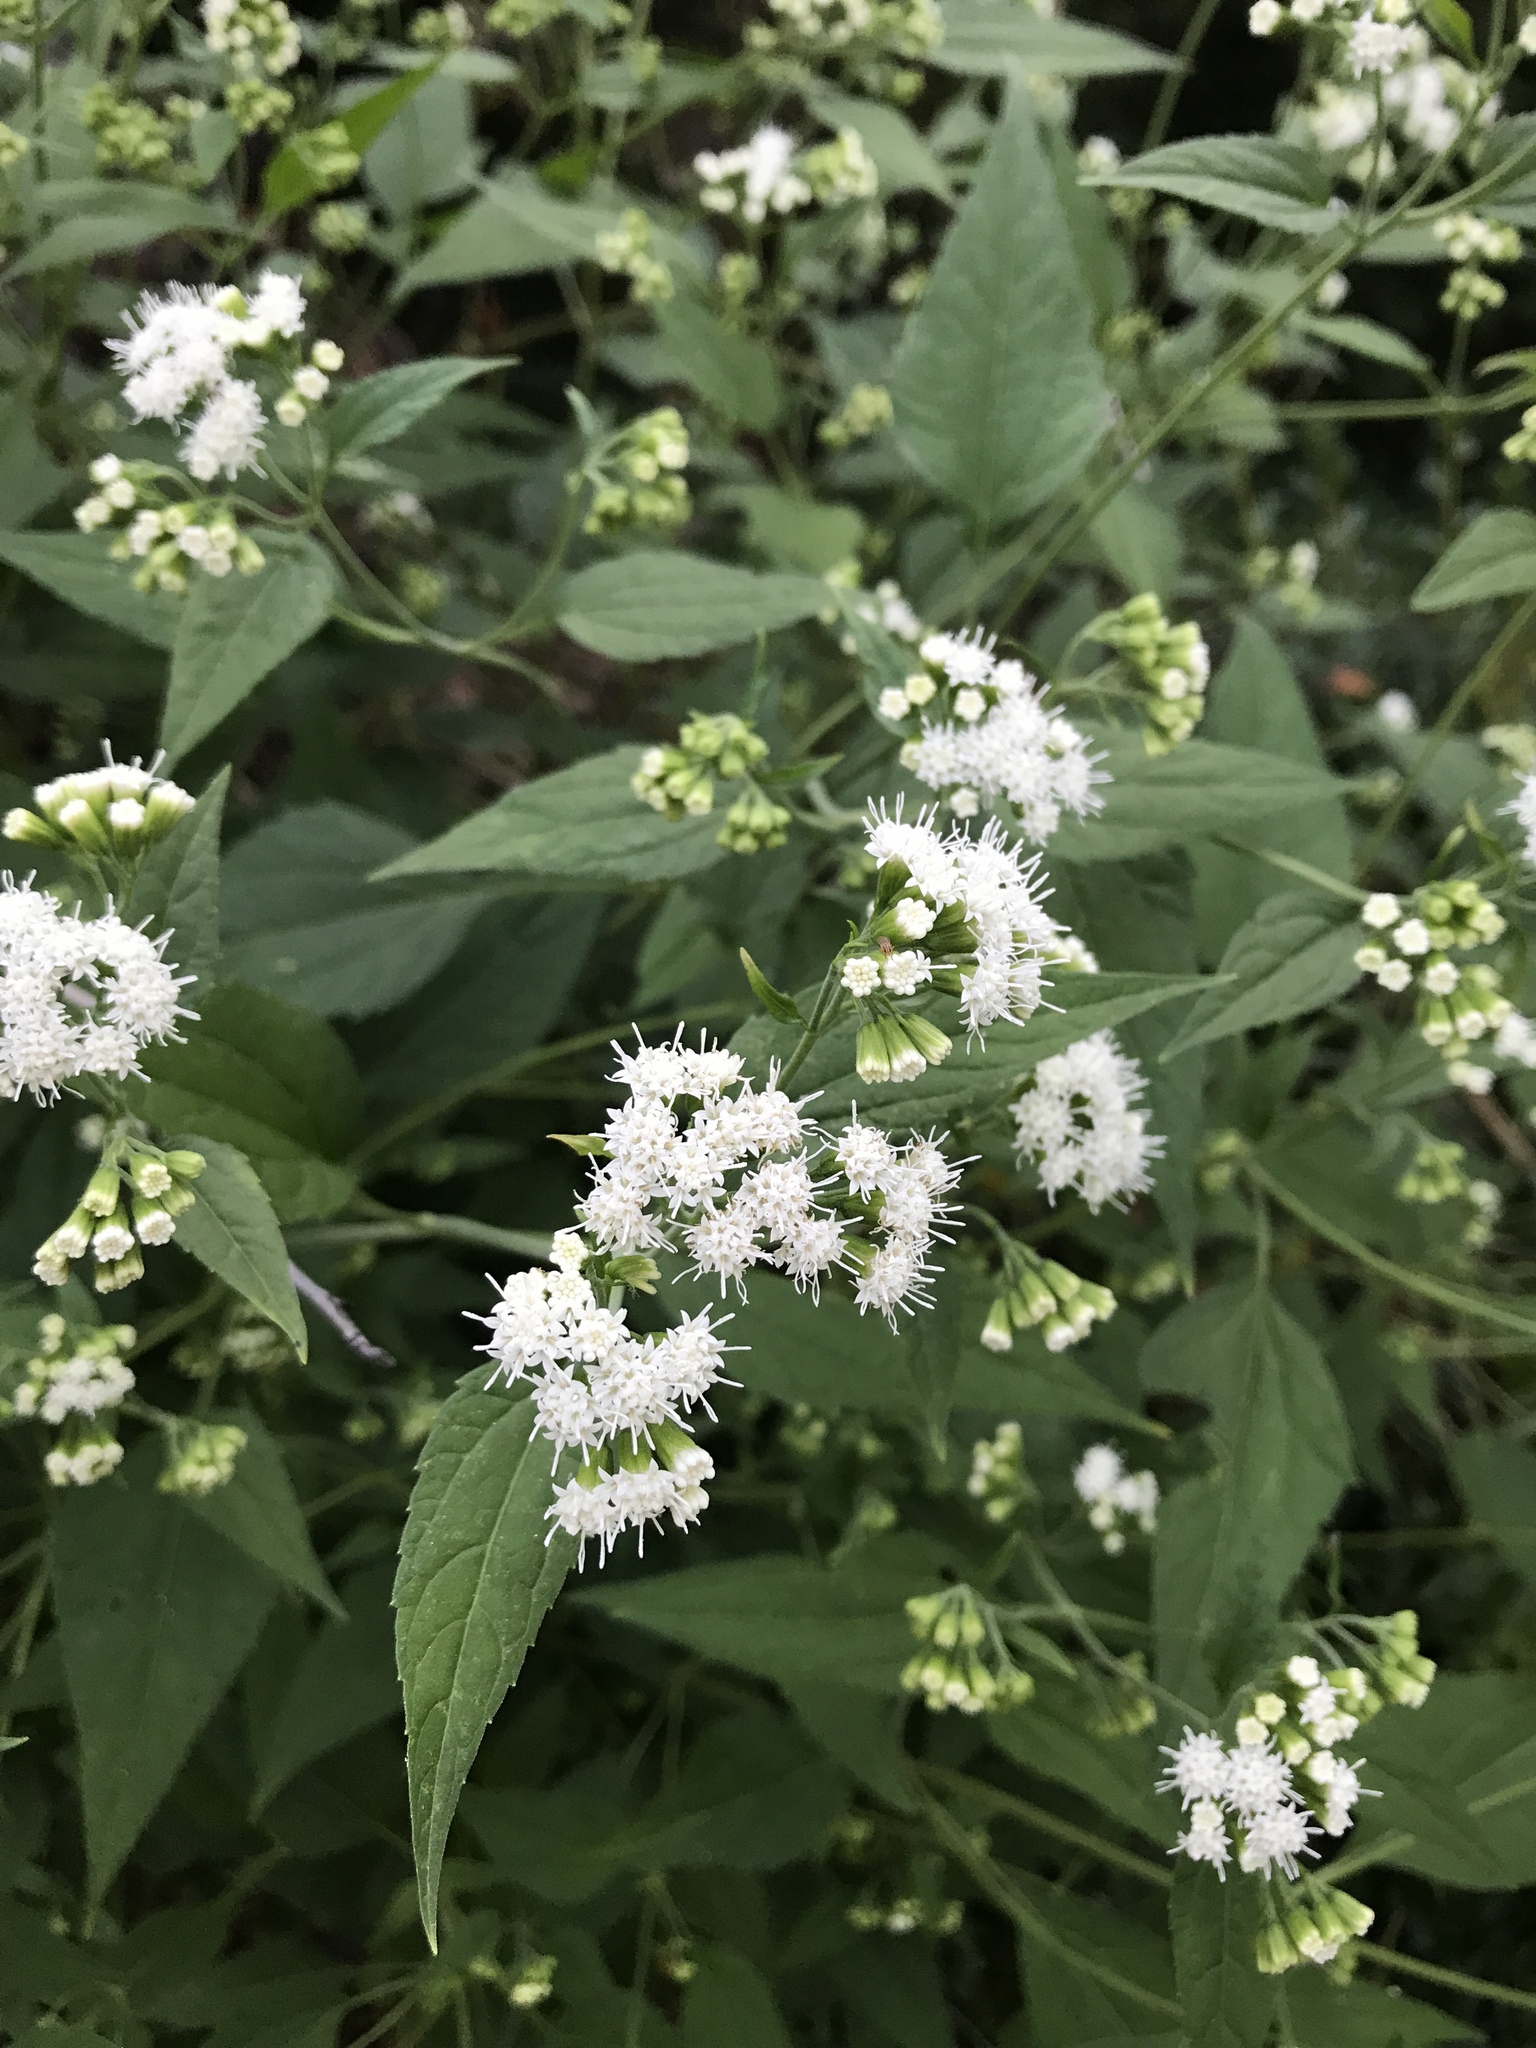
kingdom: Plantae
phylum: Tracheophyta
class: Magnoliopsida
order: Asterales
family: Asteraceae
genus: Ageratina
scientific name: Ageratina altissima
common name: White snakeroot
